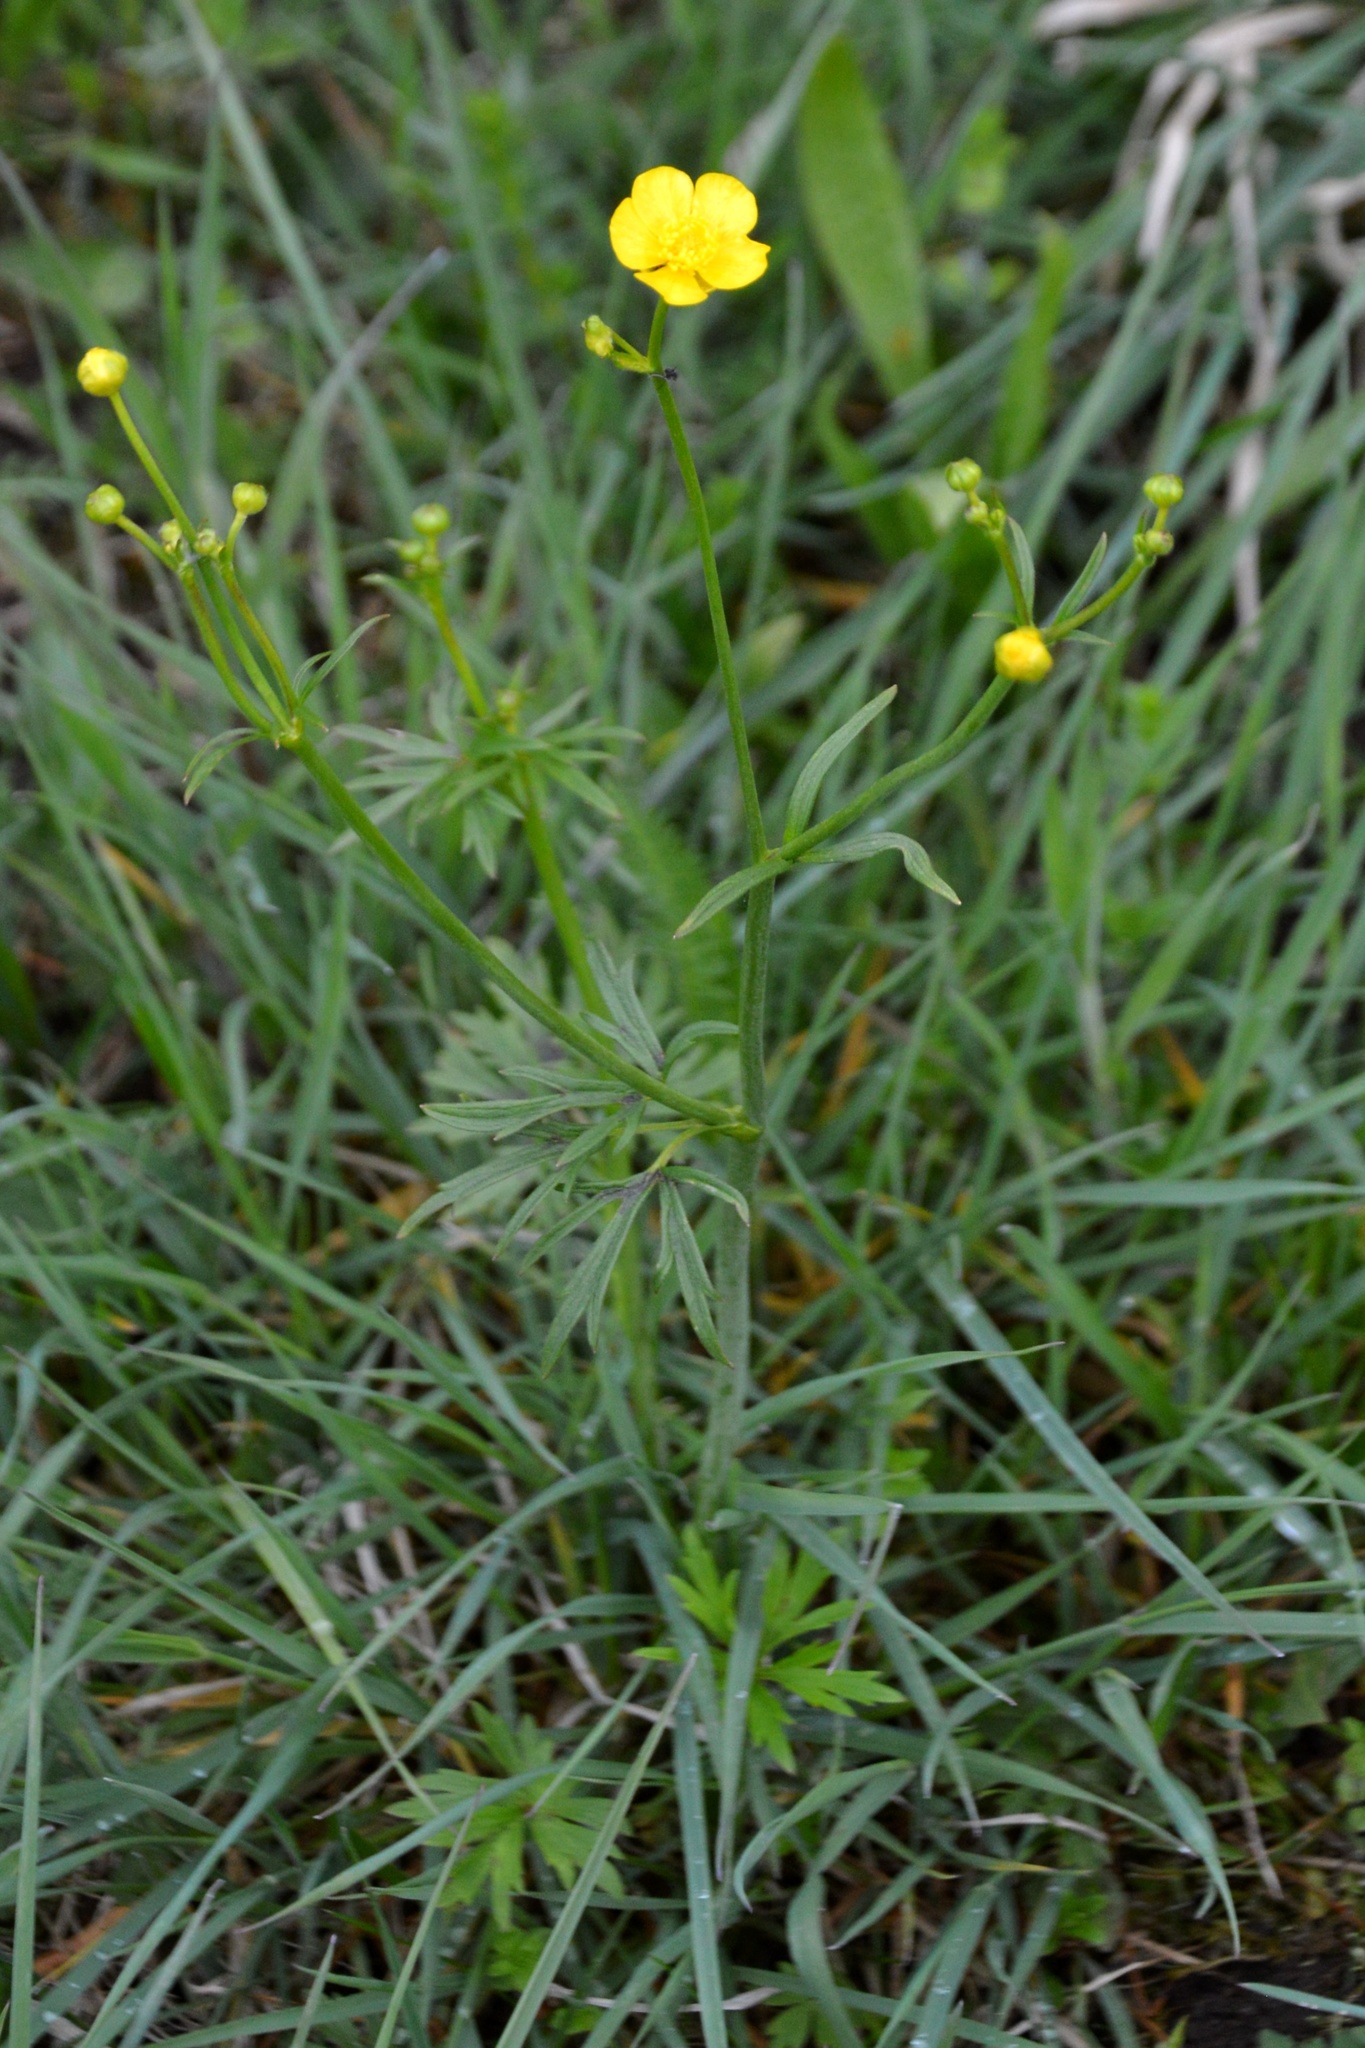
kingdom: Plantae
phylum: Tracheophyta
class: Magnoliopsida
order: Ranunculales
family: Ranunculaceae
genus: Ranunculus
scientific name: Ranunculus acris
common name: Meadow buttercup
